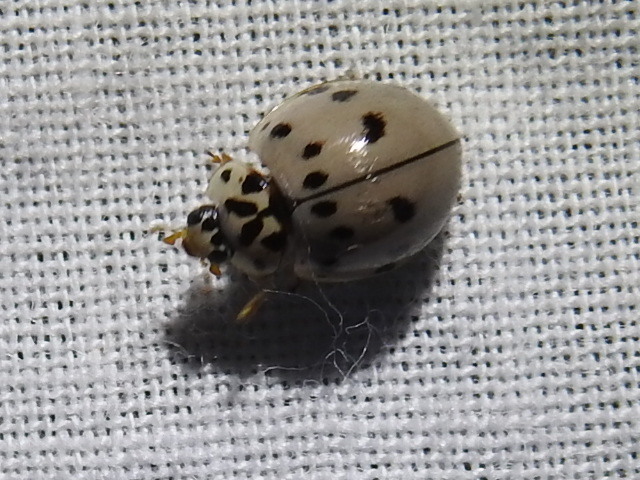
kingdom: Animalia
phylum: Arthropoda
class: Insecta
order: Coleoptera
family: Coccinellidae
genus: Olla
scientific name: Olla v-nigrum
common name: Ashy gray lady beetle
